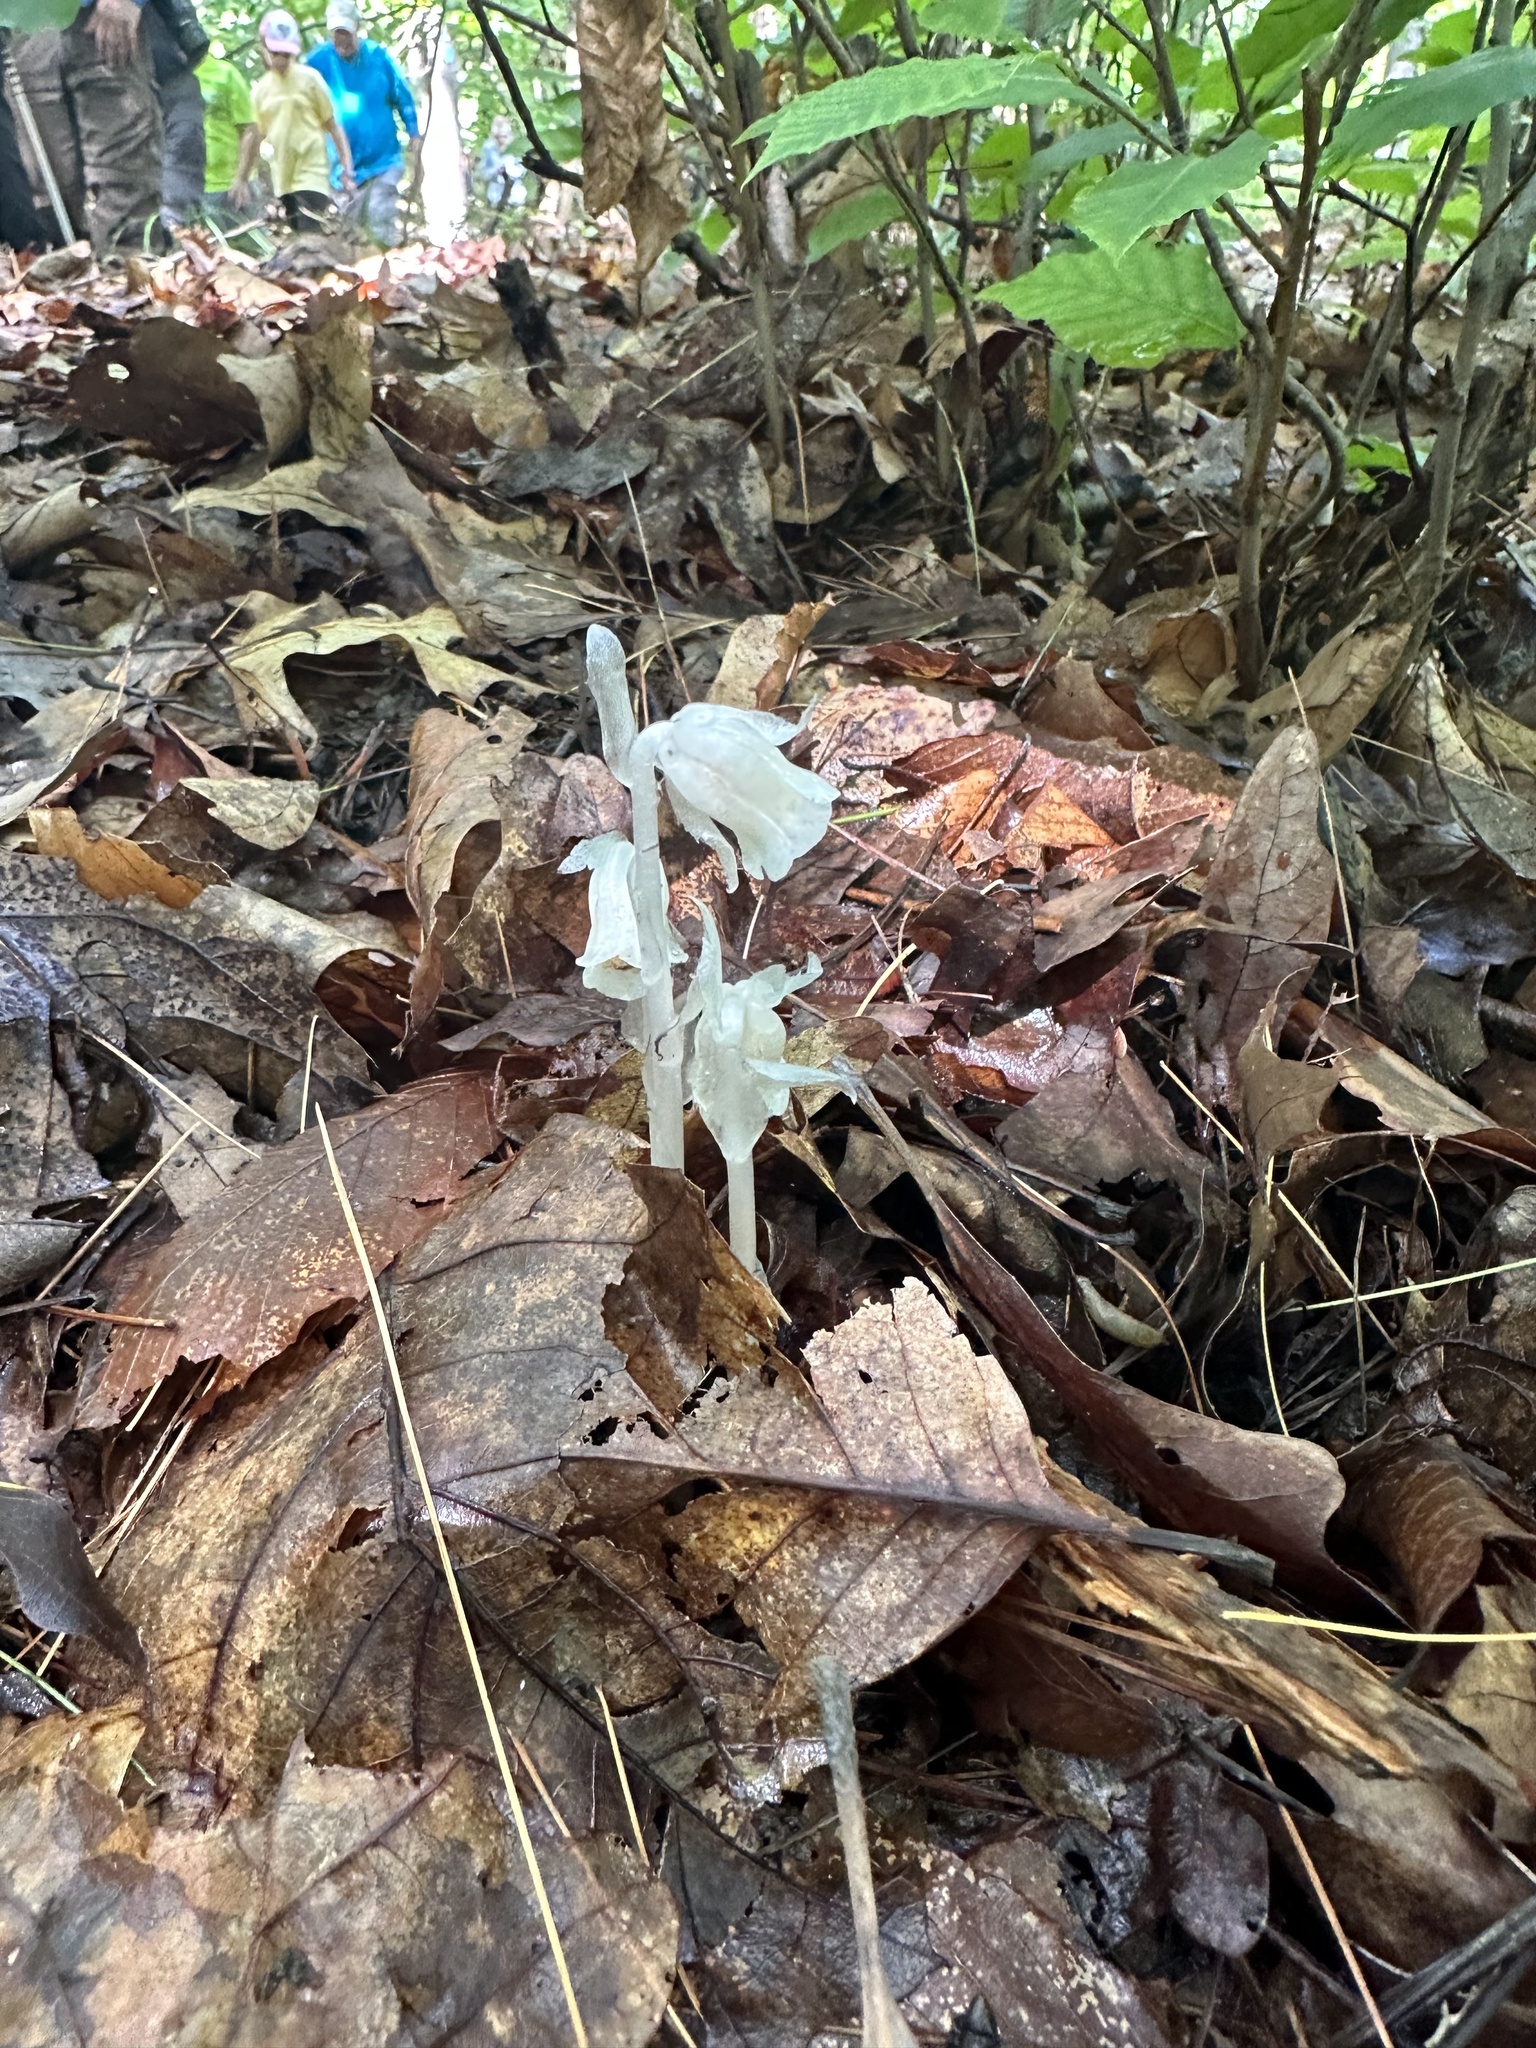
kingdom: Plantae
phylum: Tracheophyta
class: Magnoliopsida
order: Ericales
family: Ericaceae
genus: Monotropa
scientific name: Monotropa uniflora
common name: Convulsion root
